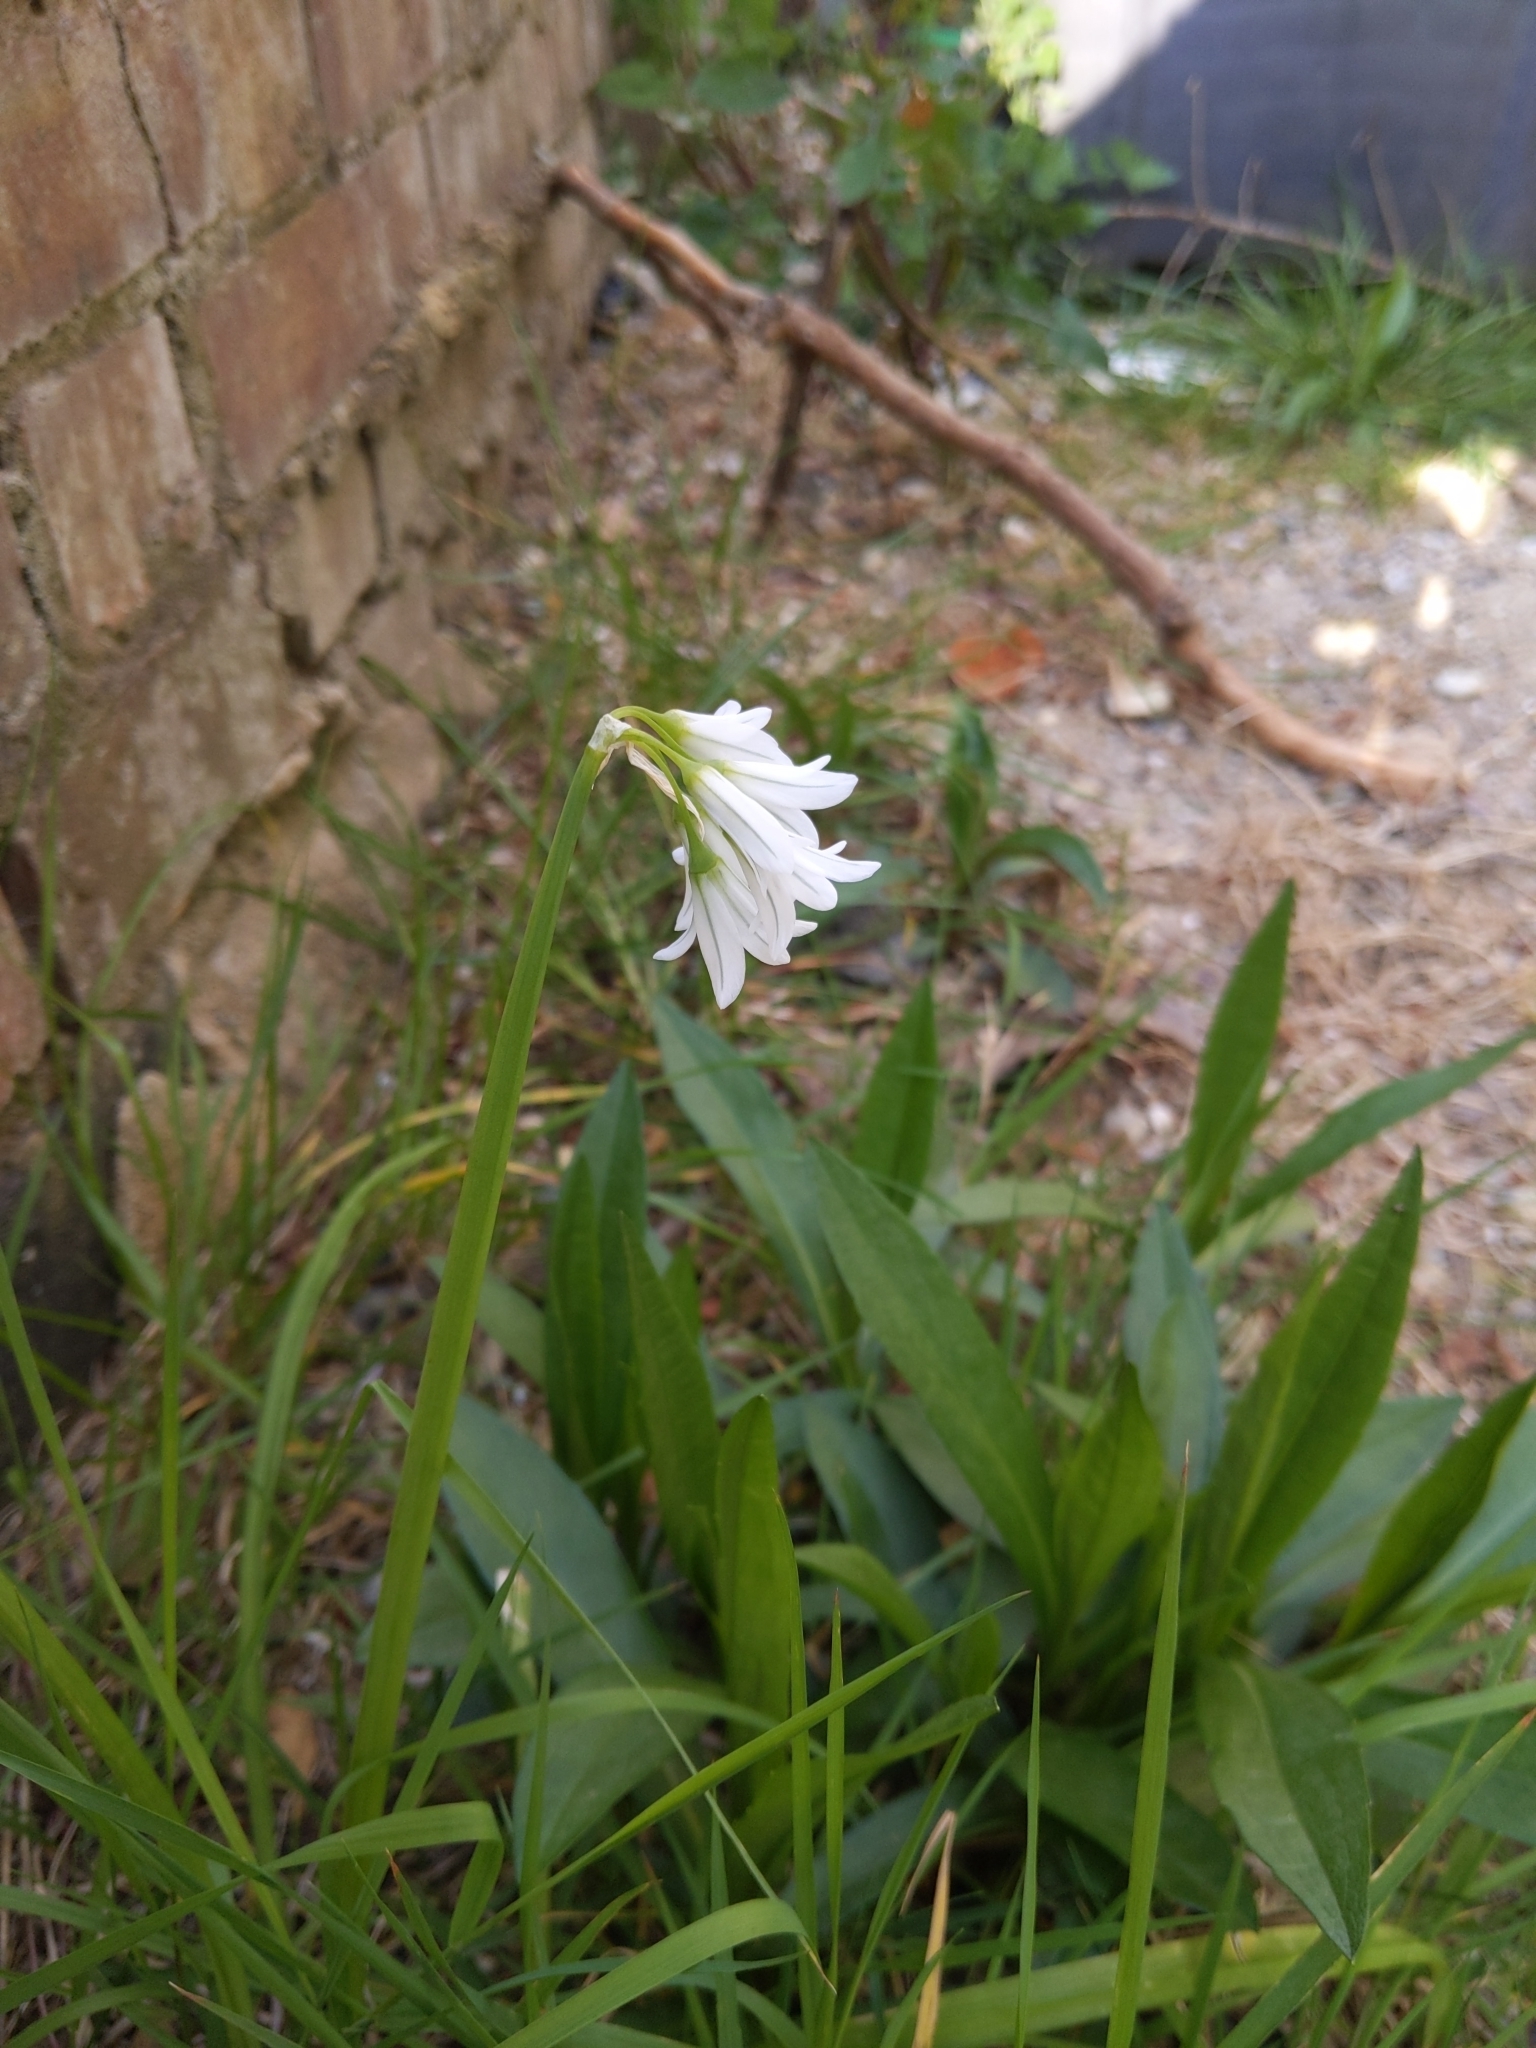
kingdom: Plantae
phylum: Tracheophyta
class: Liliopsida
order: Asparagales
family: Amaryllidaceae
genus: Allium
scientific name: Allium triquetrum
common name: Three-cornered garlic
